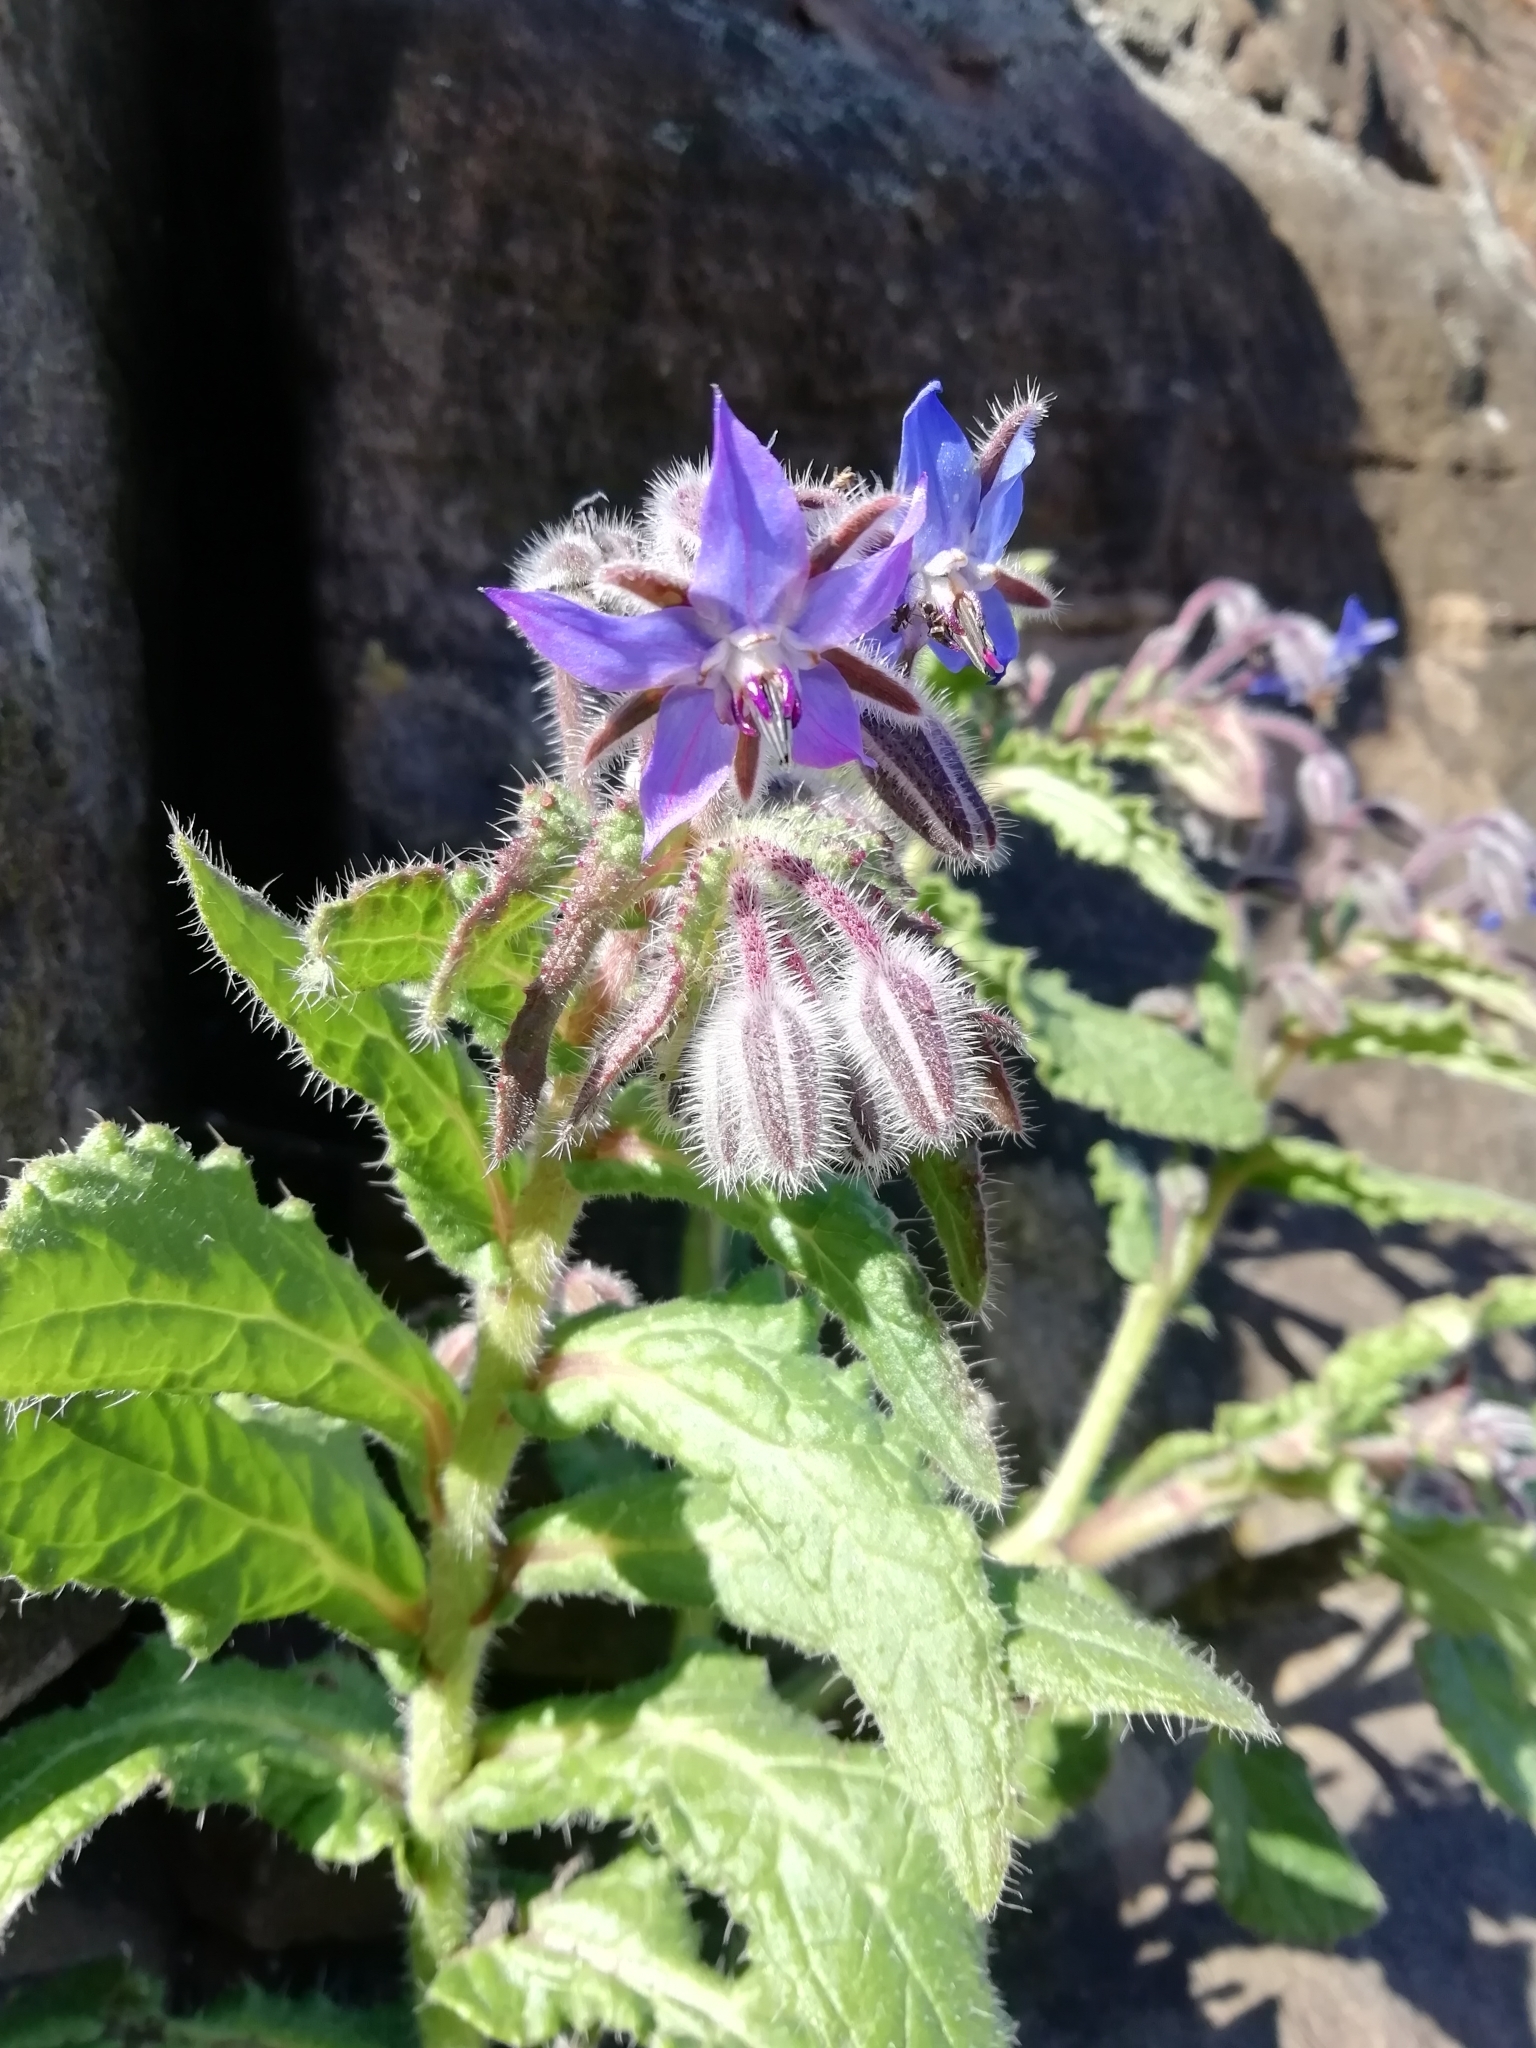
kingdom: Plantae
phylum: Tracheophyta
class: Magnoliopsida
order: Boraginales
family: Boraginaceae
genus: Borago
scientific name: Borago officinalis
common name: Borage
